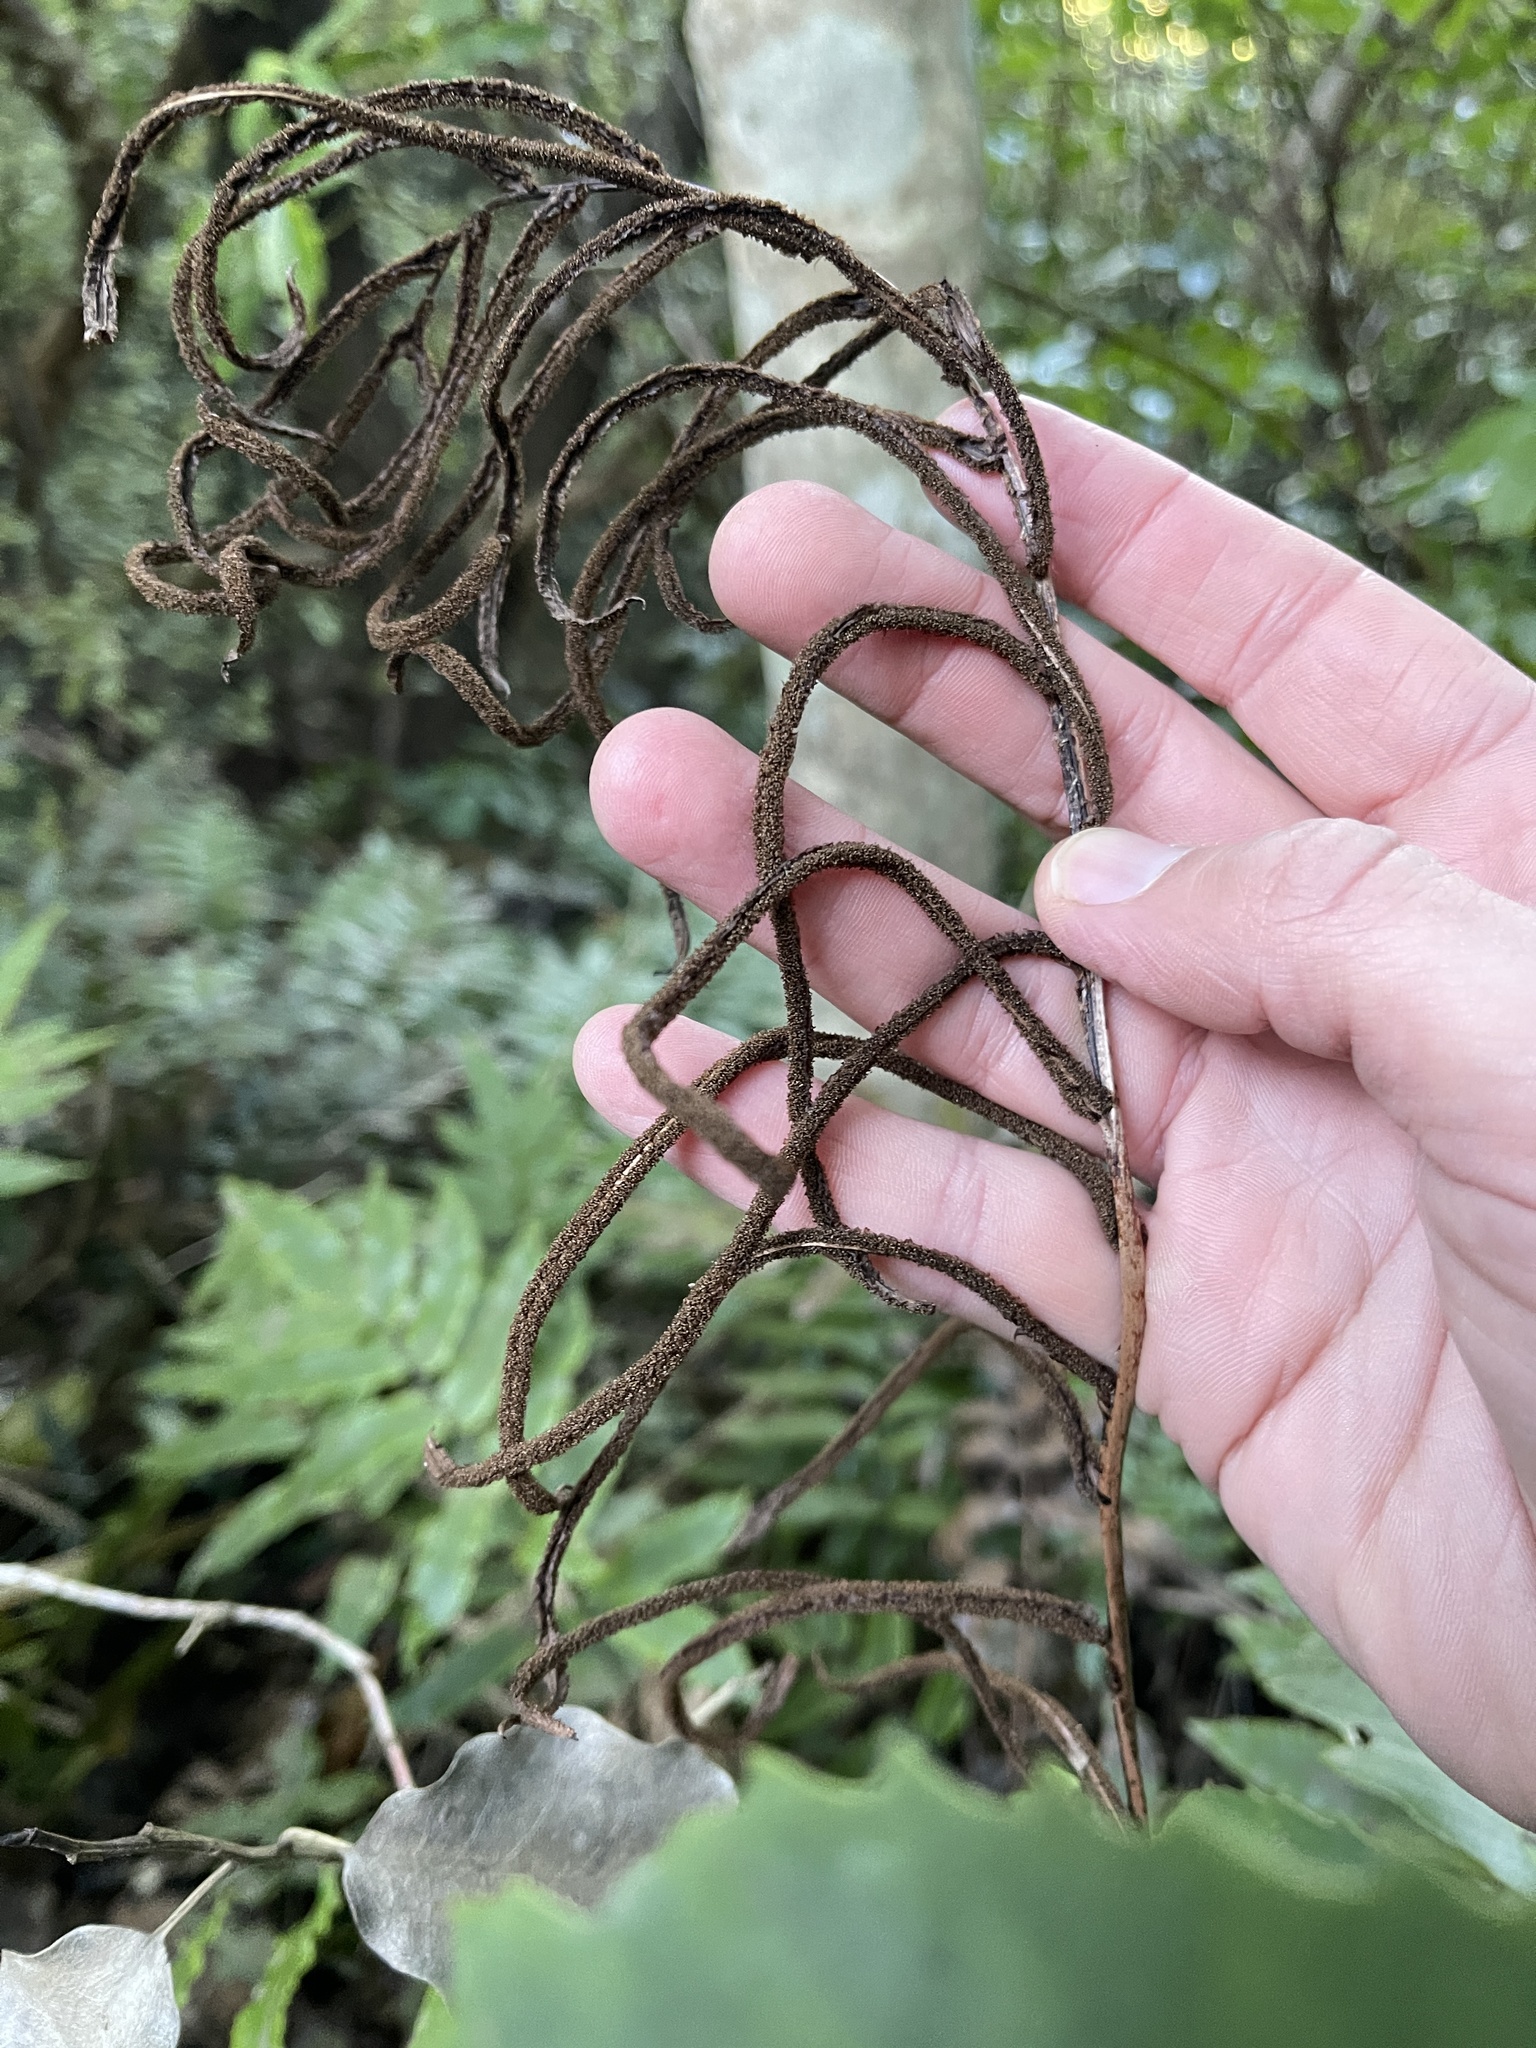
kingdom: Plantae
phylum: Tracheophyta
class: Polypodiopsida
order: Polypodiales
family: Blechnaceae
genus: Parablechnum
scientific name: Parablechnum procerum
